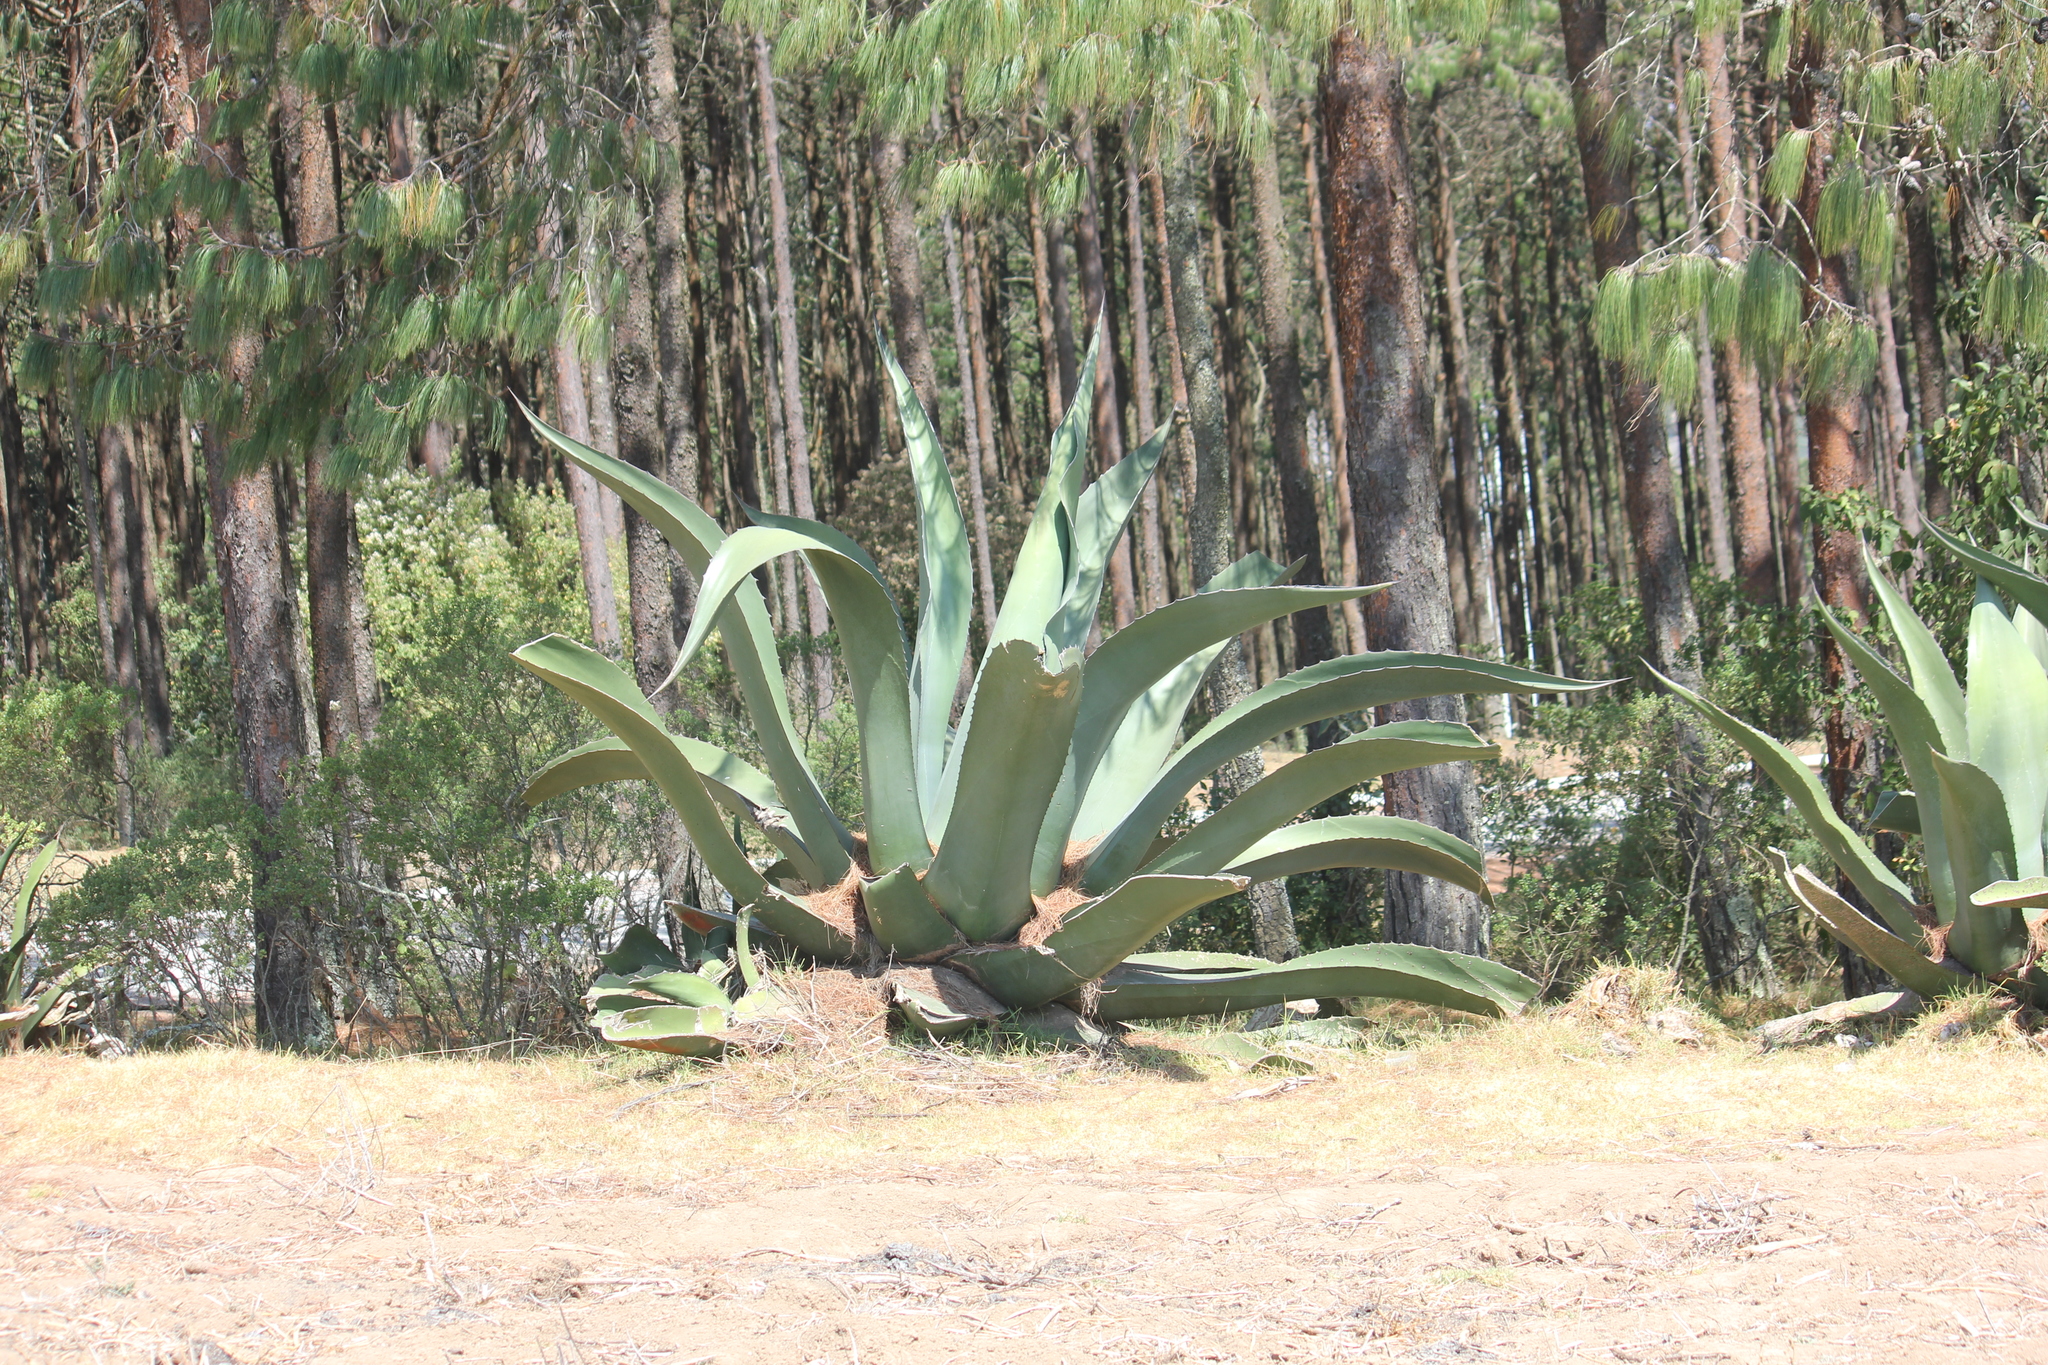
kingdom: Plantae
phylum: Tracheophyta
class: Liliopsida
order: Asparagales
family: Asparagaceae
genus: Agave
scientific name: Agave salmiana
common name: Pulque agave
